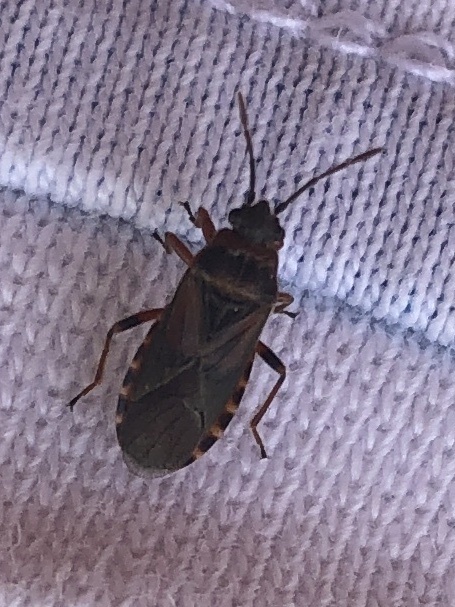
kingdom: Animalia
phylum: Arthropoda
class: Insecta
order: Hemiptera
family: Lygaeidae
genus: Arocatus
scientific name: Arocatus melanocephalus
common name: Lygaeid bug
